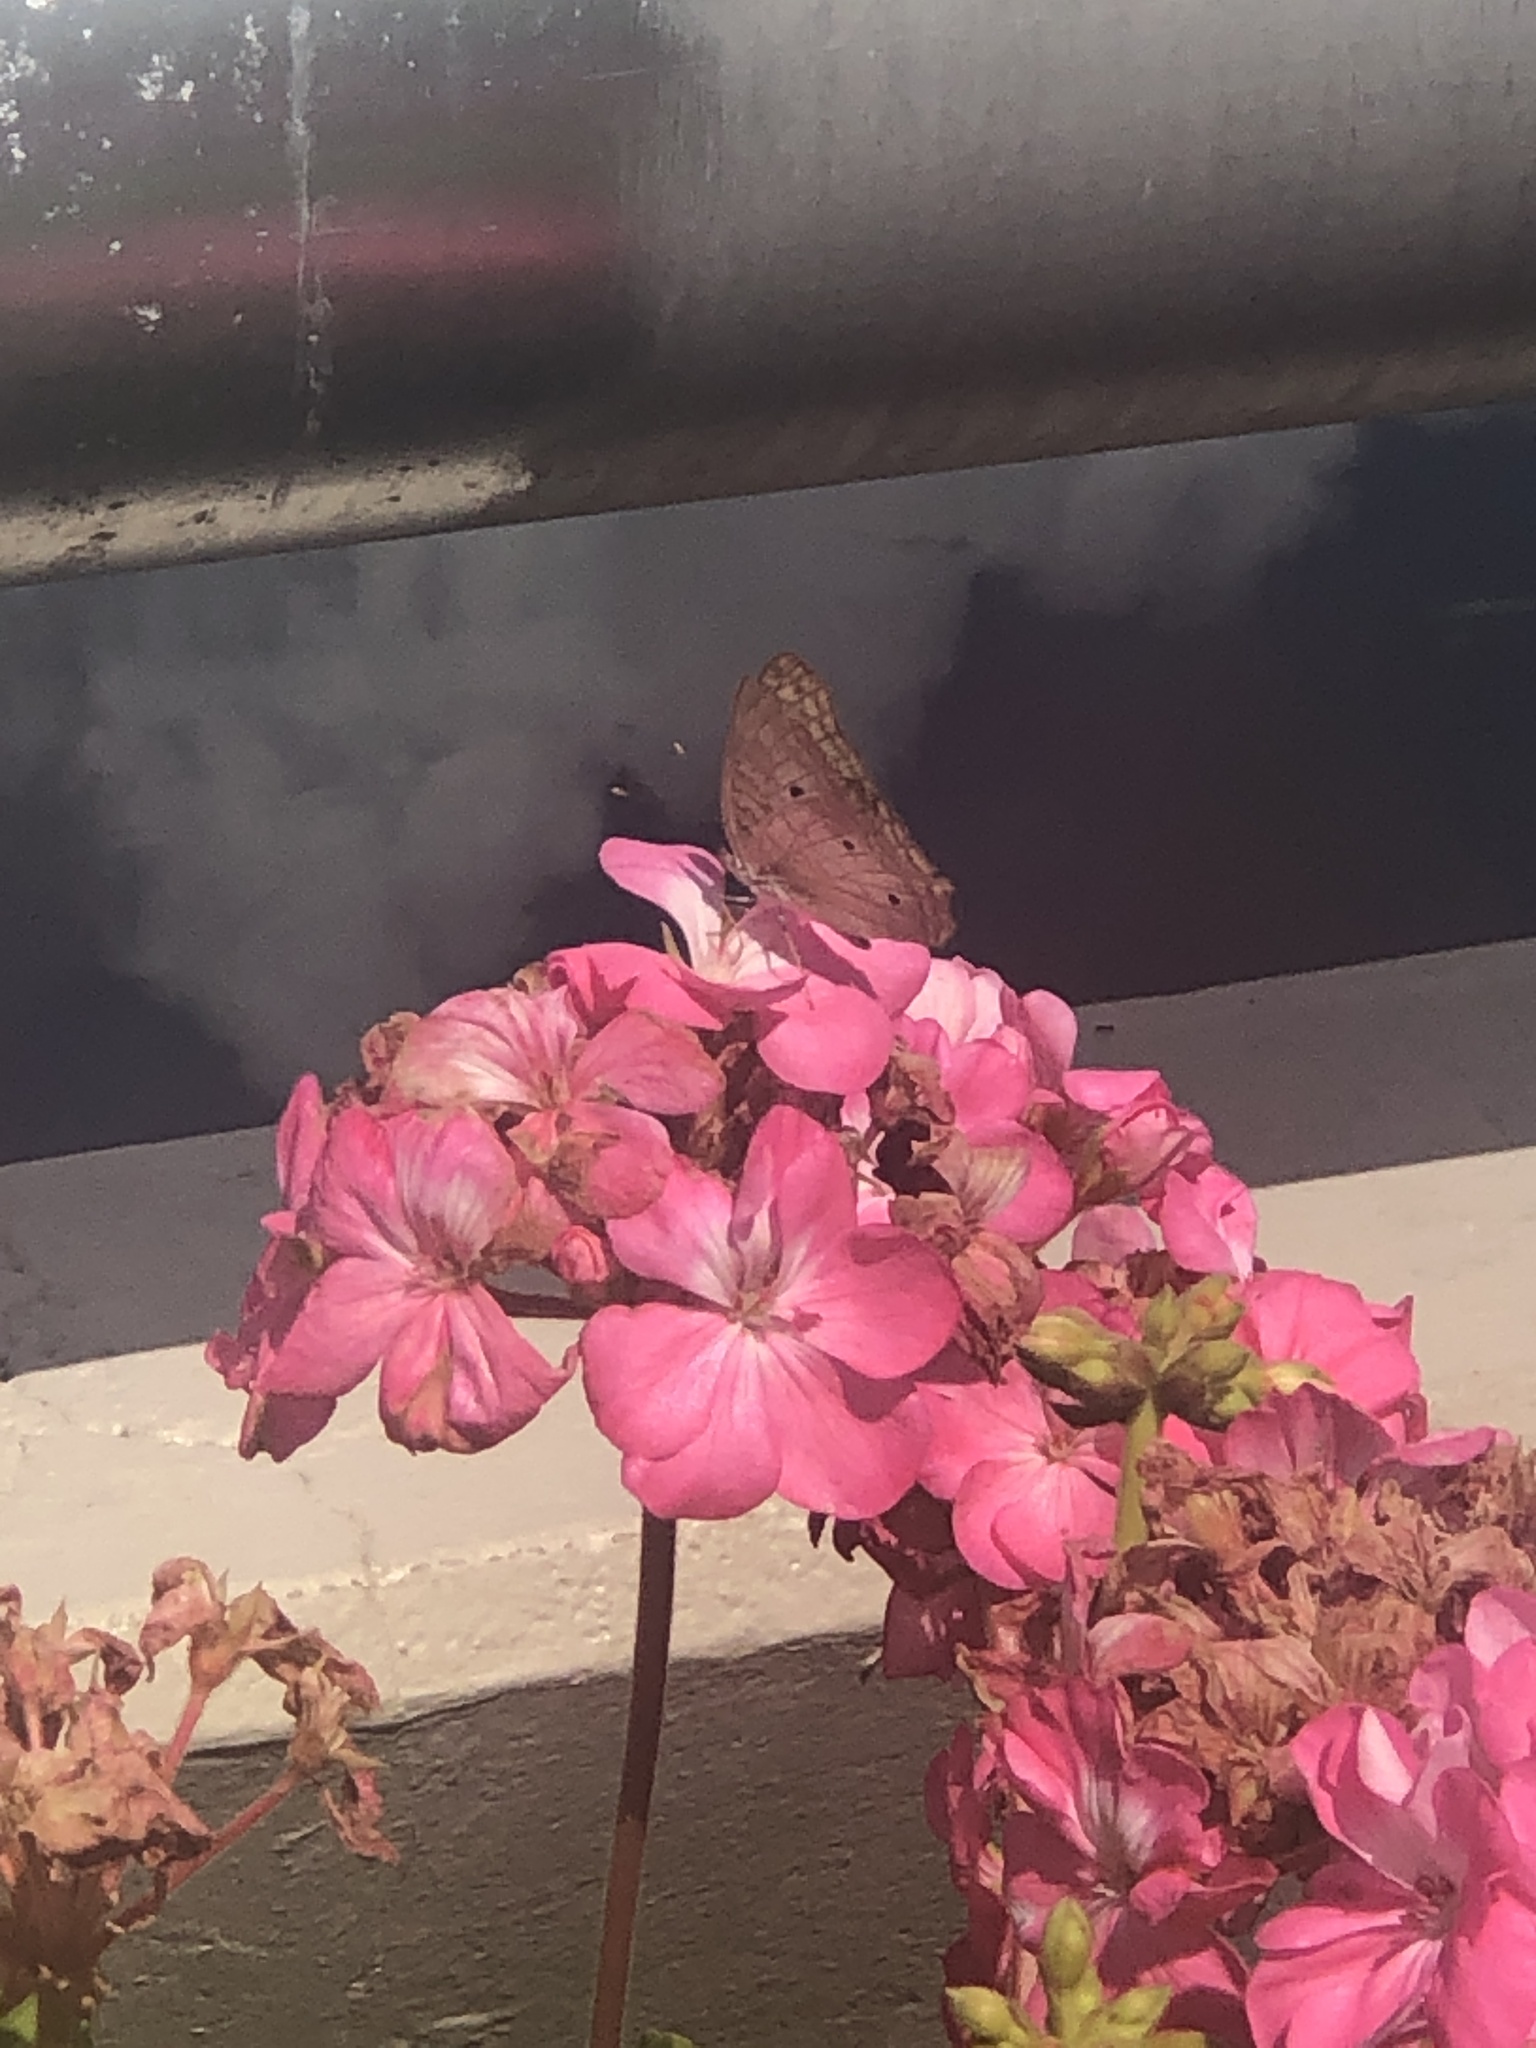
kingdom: Animalia
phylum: Arthropoda
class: Insecta
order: Lepidoptera
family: Nymphalidae
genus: Anartia
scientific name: Anartia jatrophae
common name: White peacock
